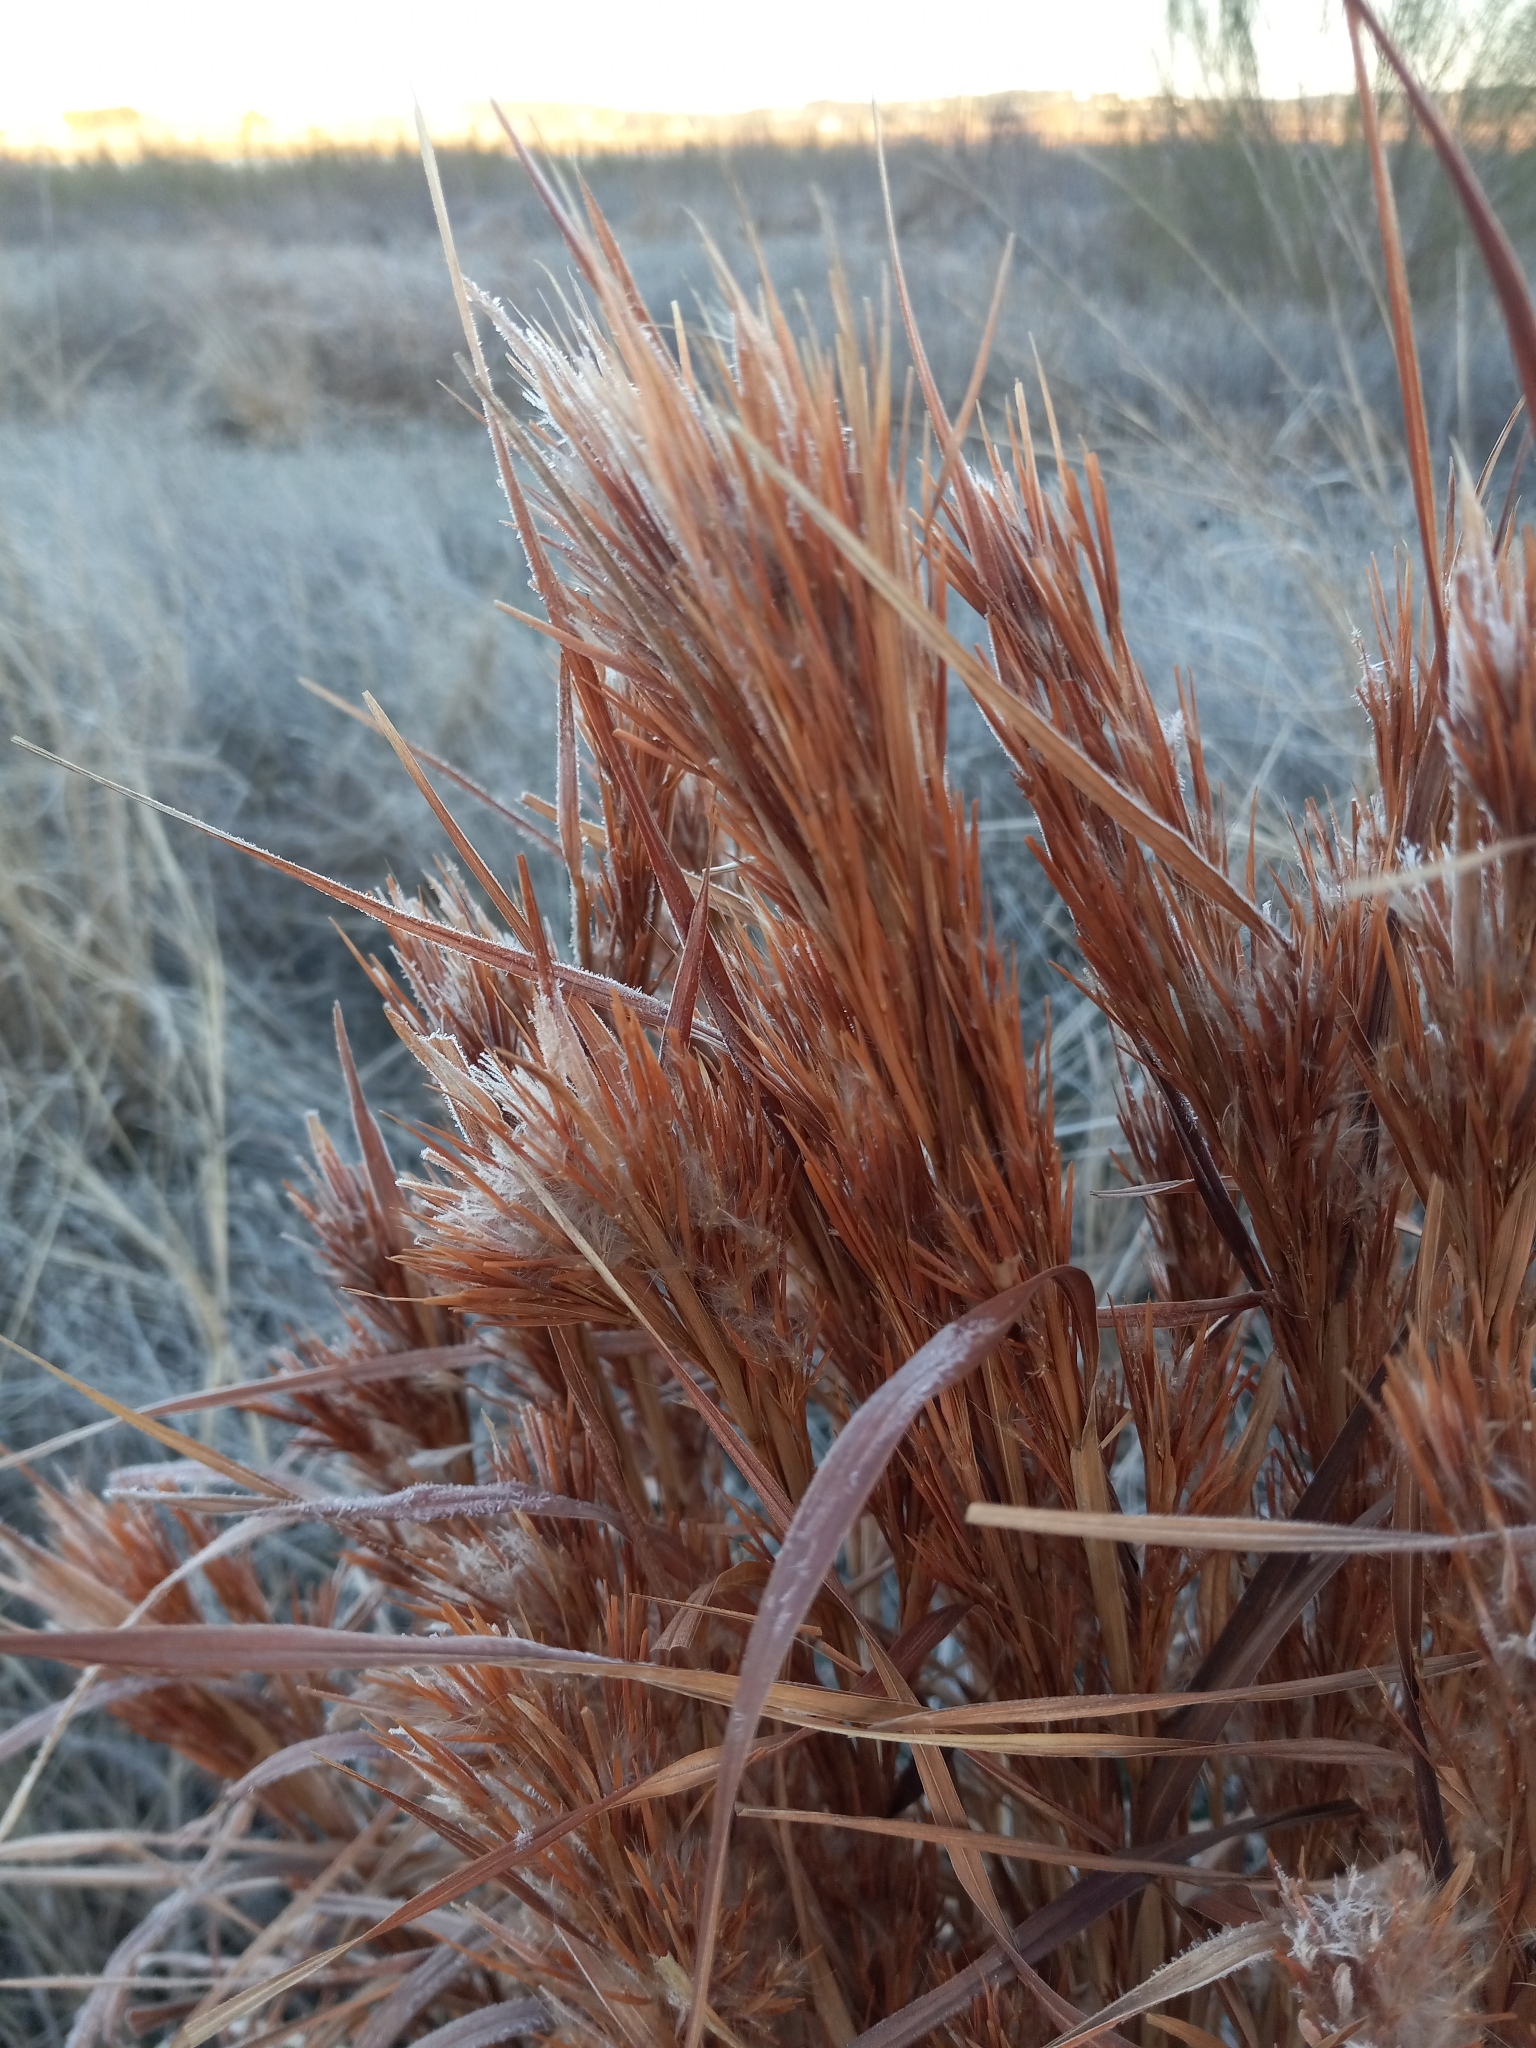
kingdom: Plantae
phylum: Tracheophyta
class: Liliopsida
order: Poales
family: Poaceae
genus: Andropogon
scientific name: Andropogon tenuispatheus
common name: Bushy bluestem
